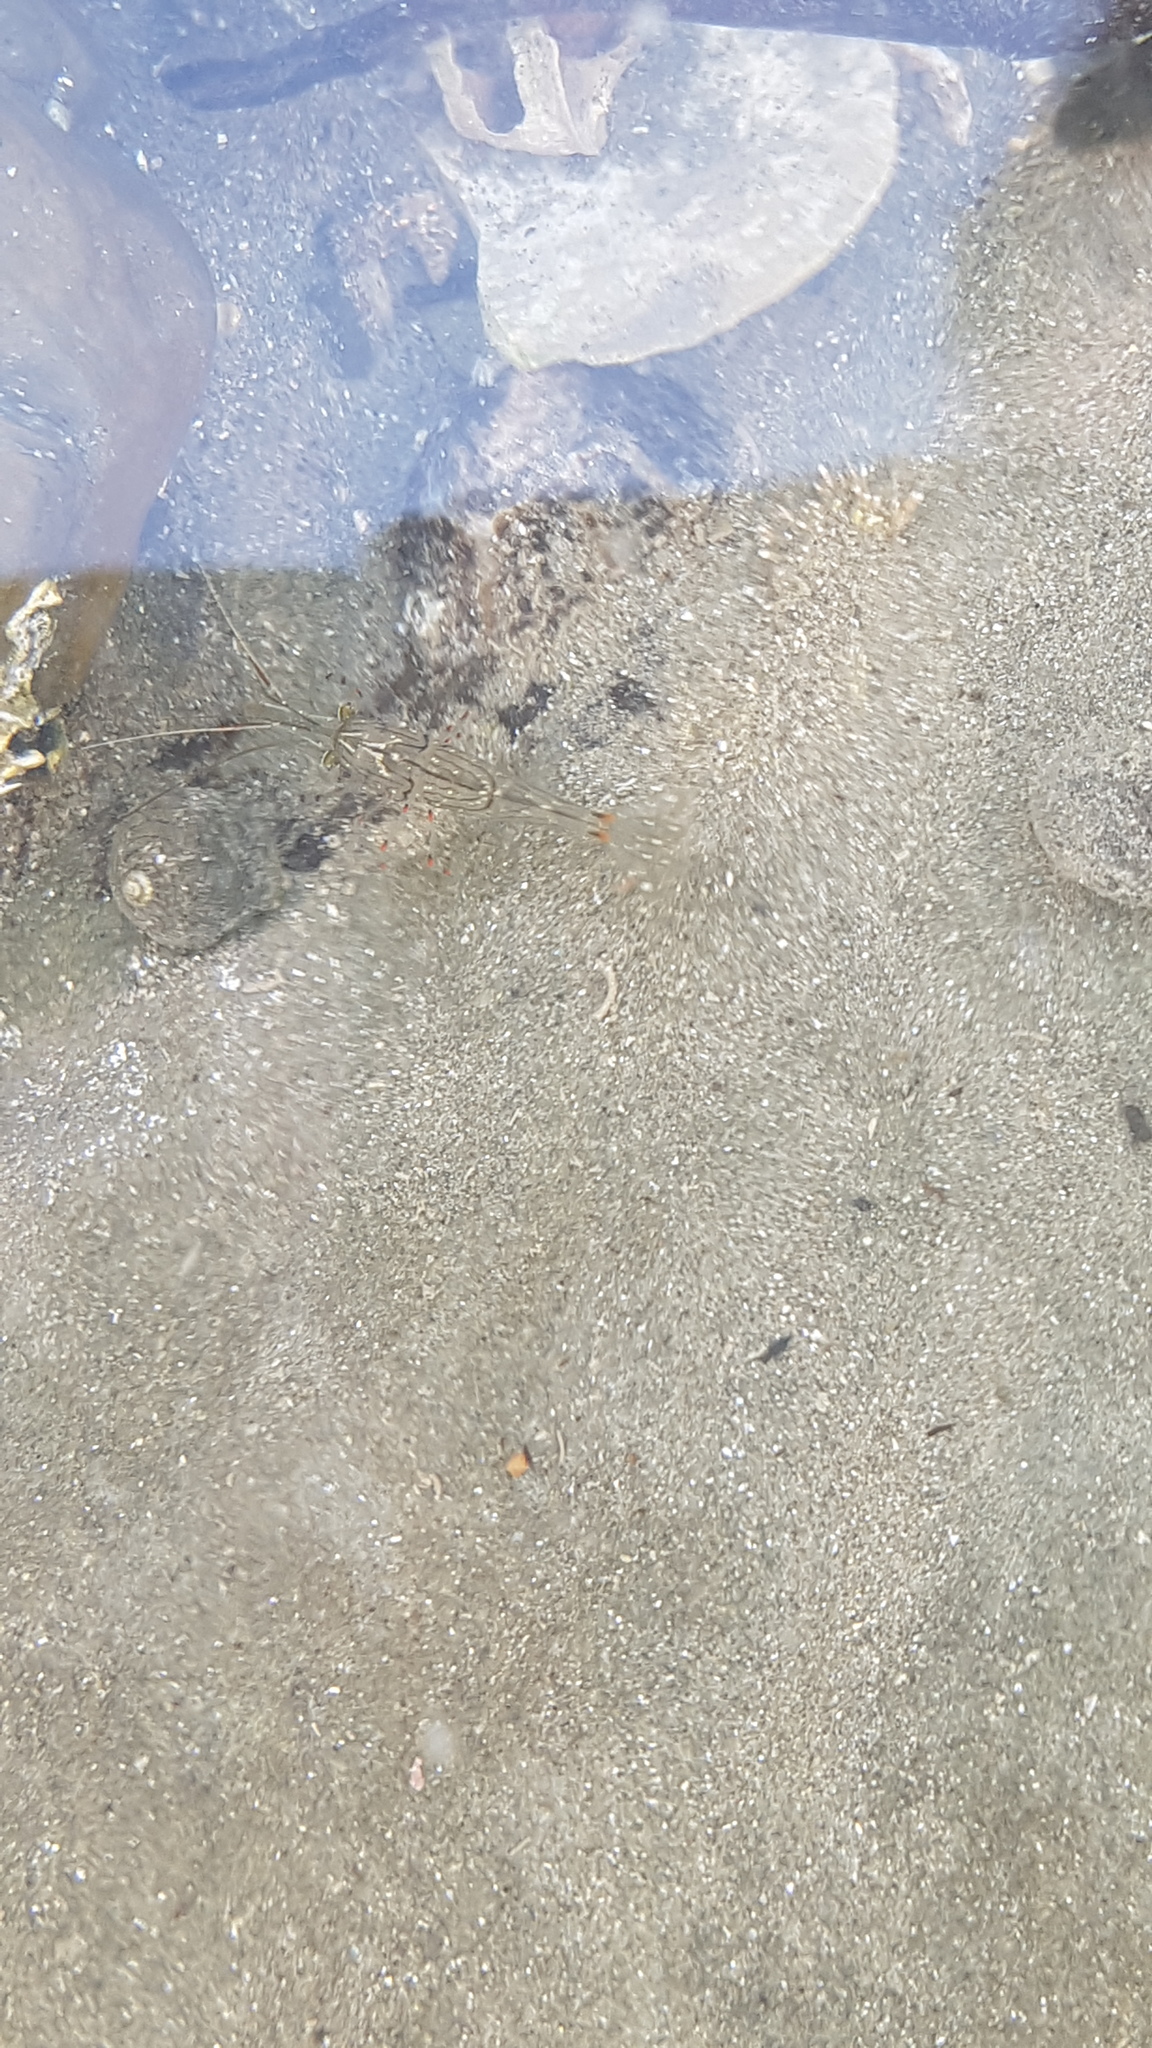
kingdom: Animalia
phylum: Arthropoda
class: Malacostraca
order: Decapoda
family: Palaemonidae
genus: Palaemon
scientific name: Palaemon affinis
